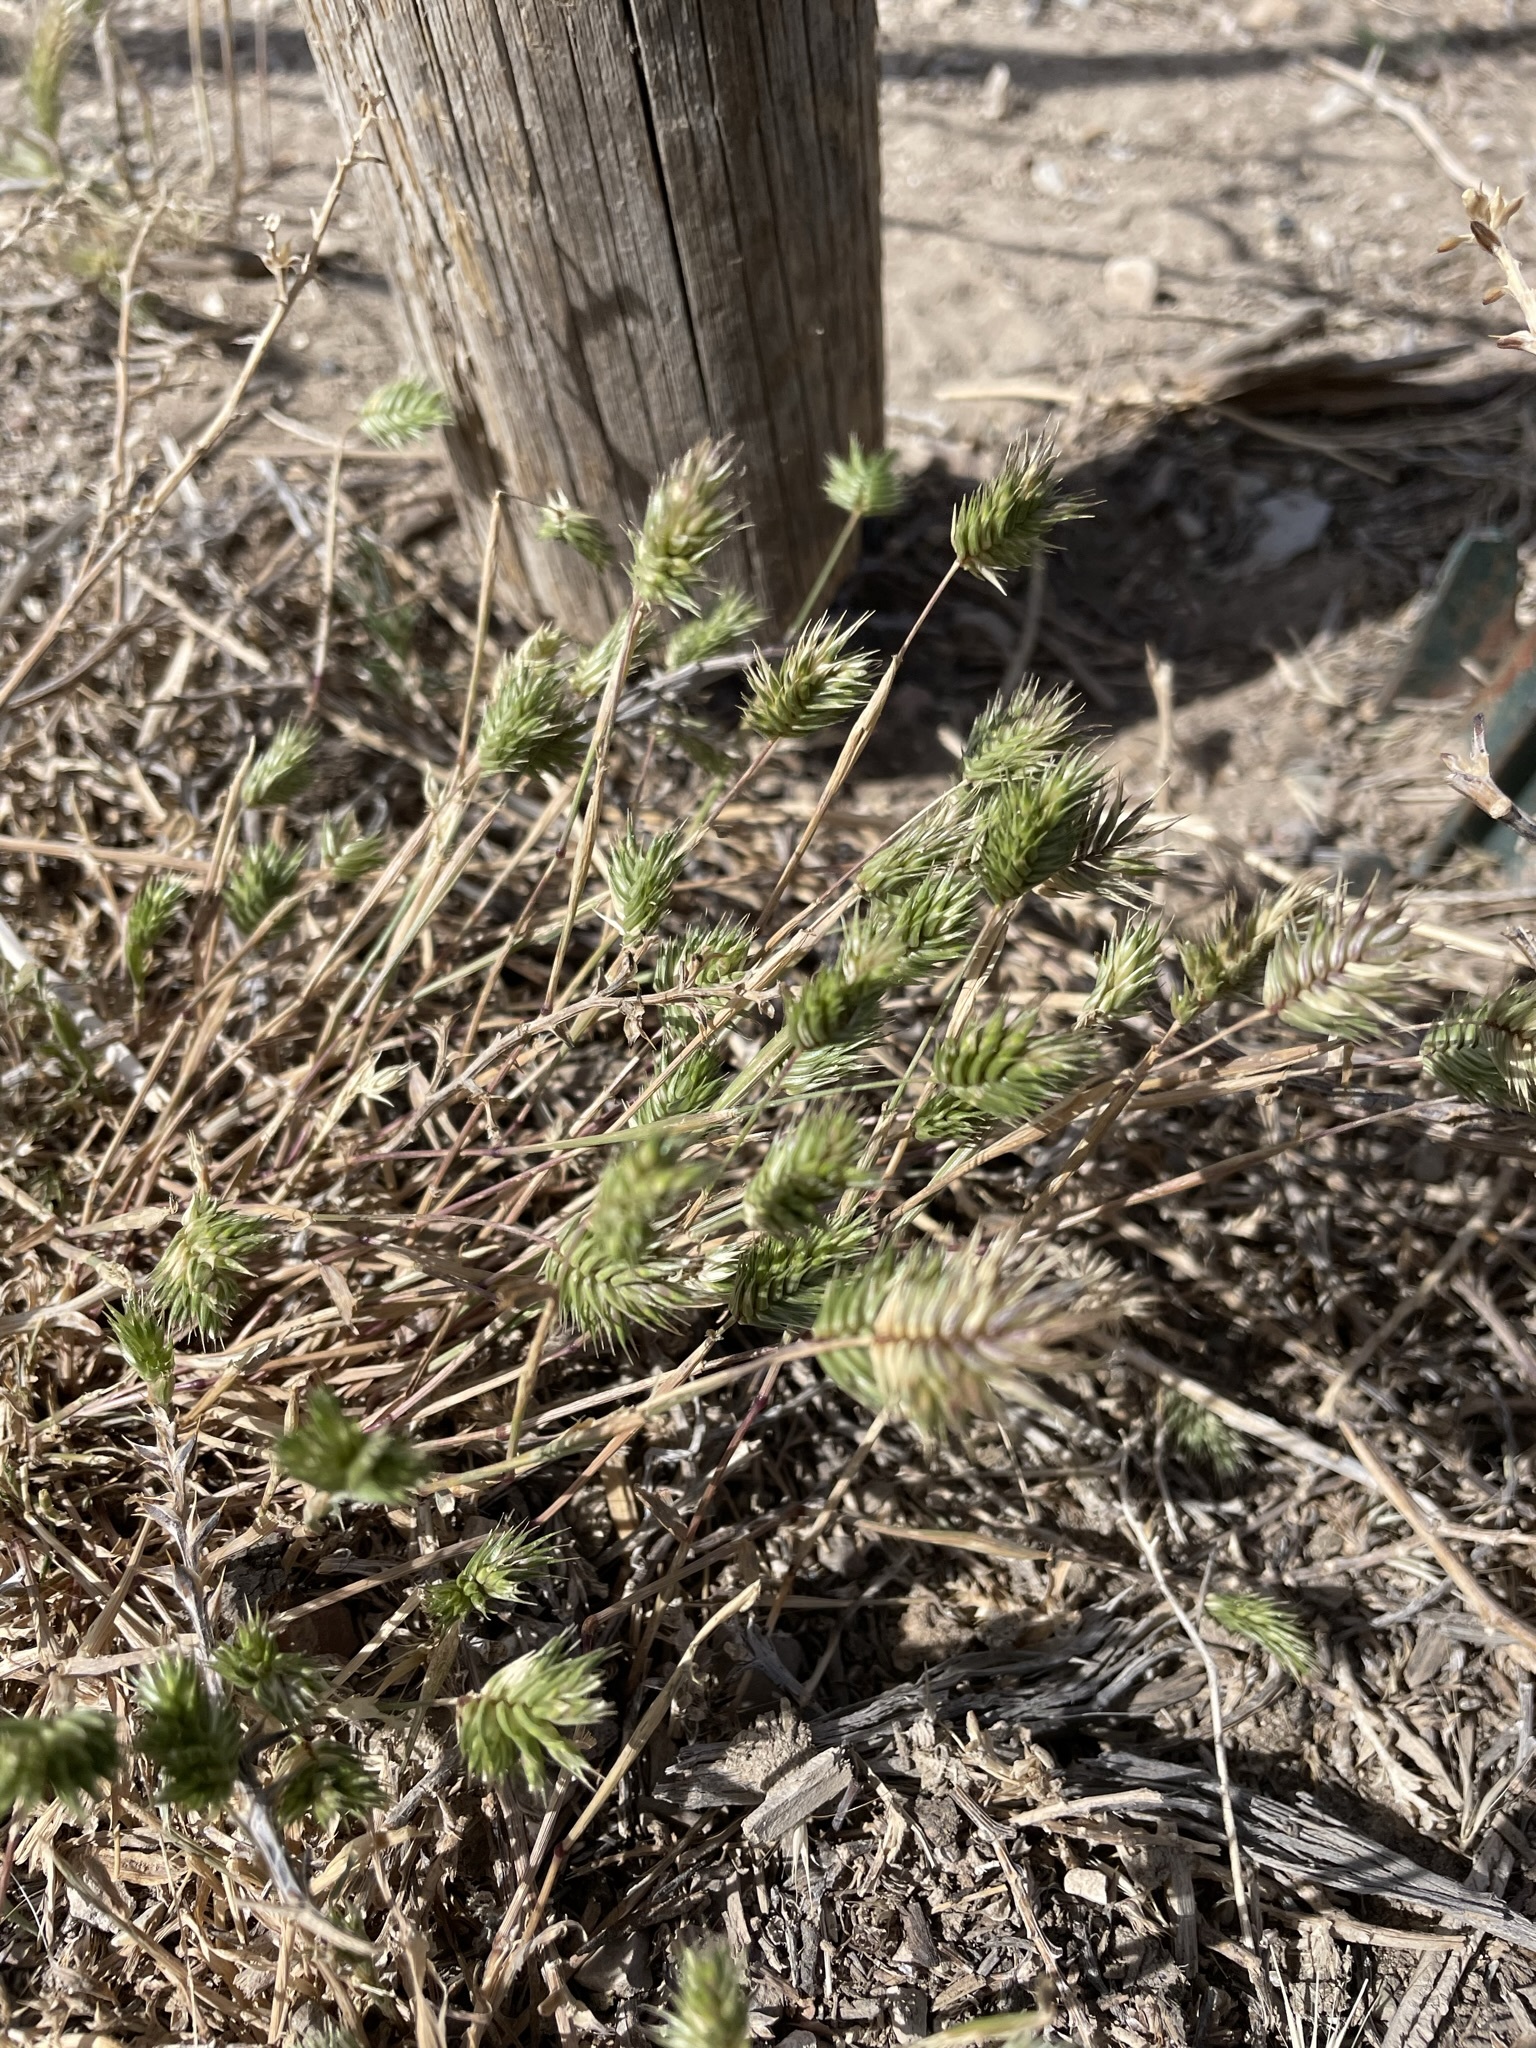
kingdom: Plantae
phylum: Tracheophyta
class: Liliopsida
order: Poales
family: Poaceae
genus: Eremopyrum
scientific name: Eremopyrum triticeum
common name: Annual wheatgrass
